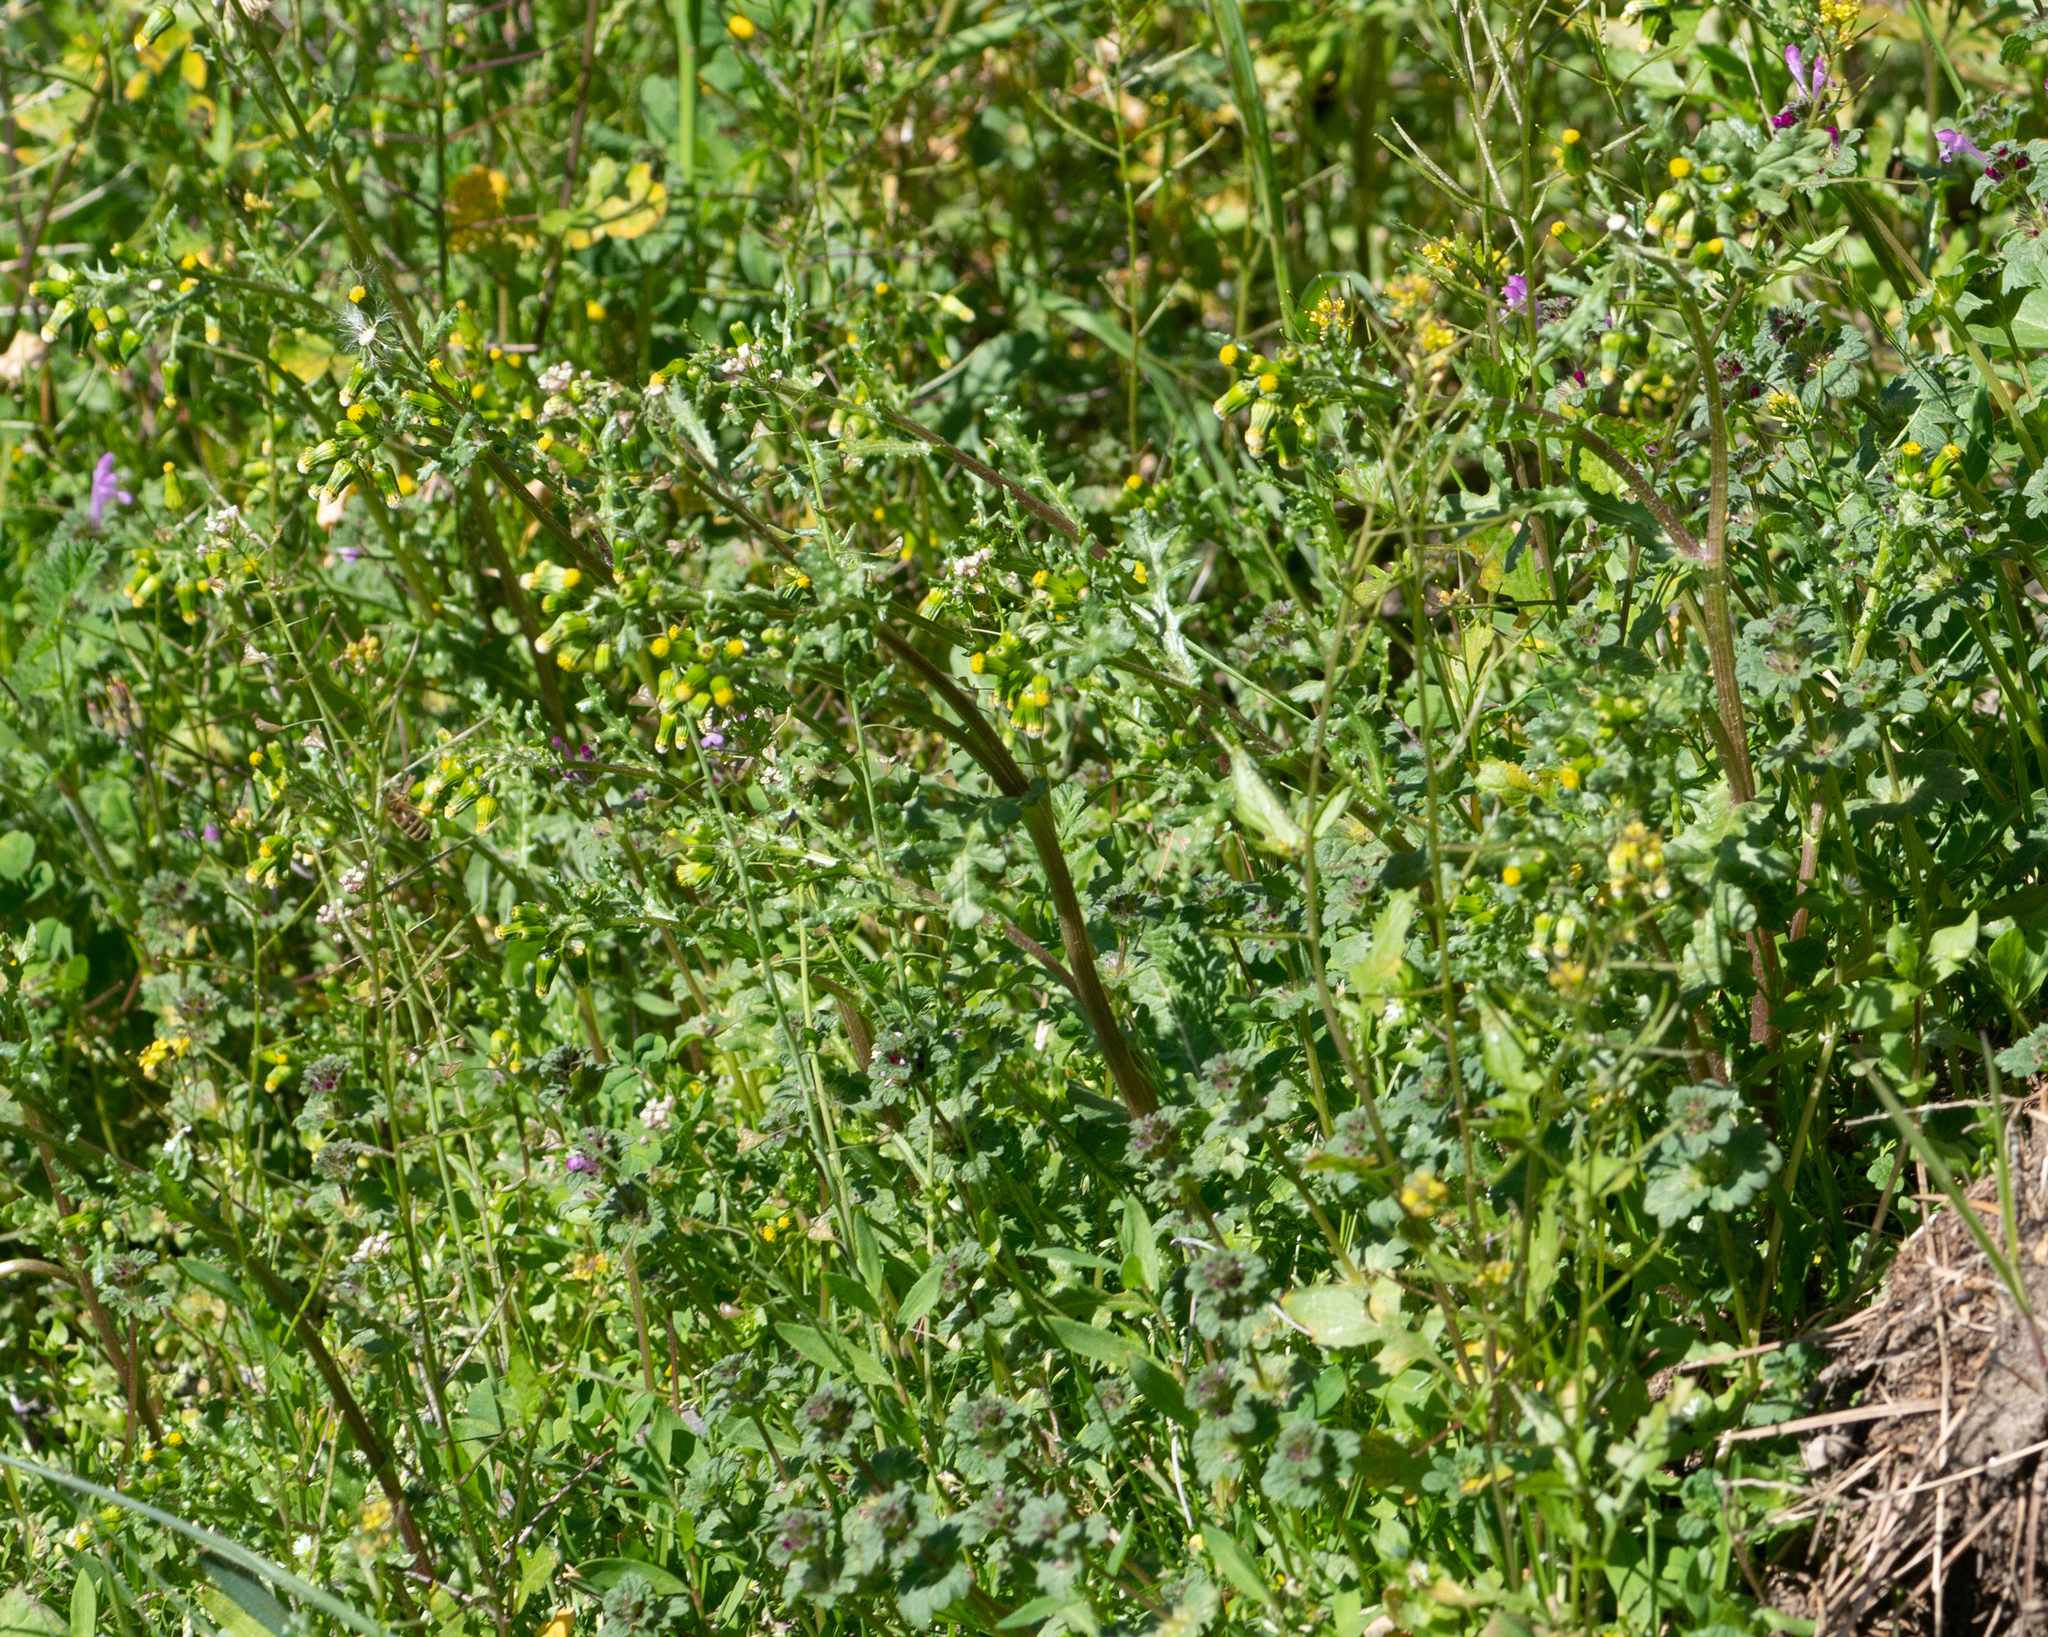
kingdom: Plantae
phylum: Tracheophyta
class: Magnoliopsida
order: Asterales
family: Asteraceae
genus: Senecio
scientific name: Senecio vulgaris
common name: Old-man-in-the-spring
